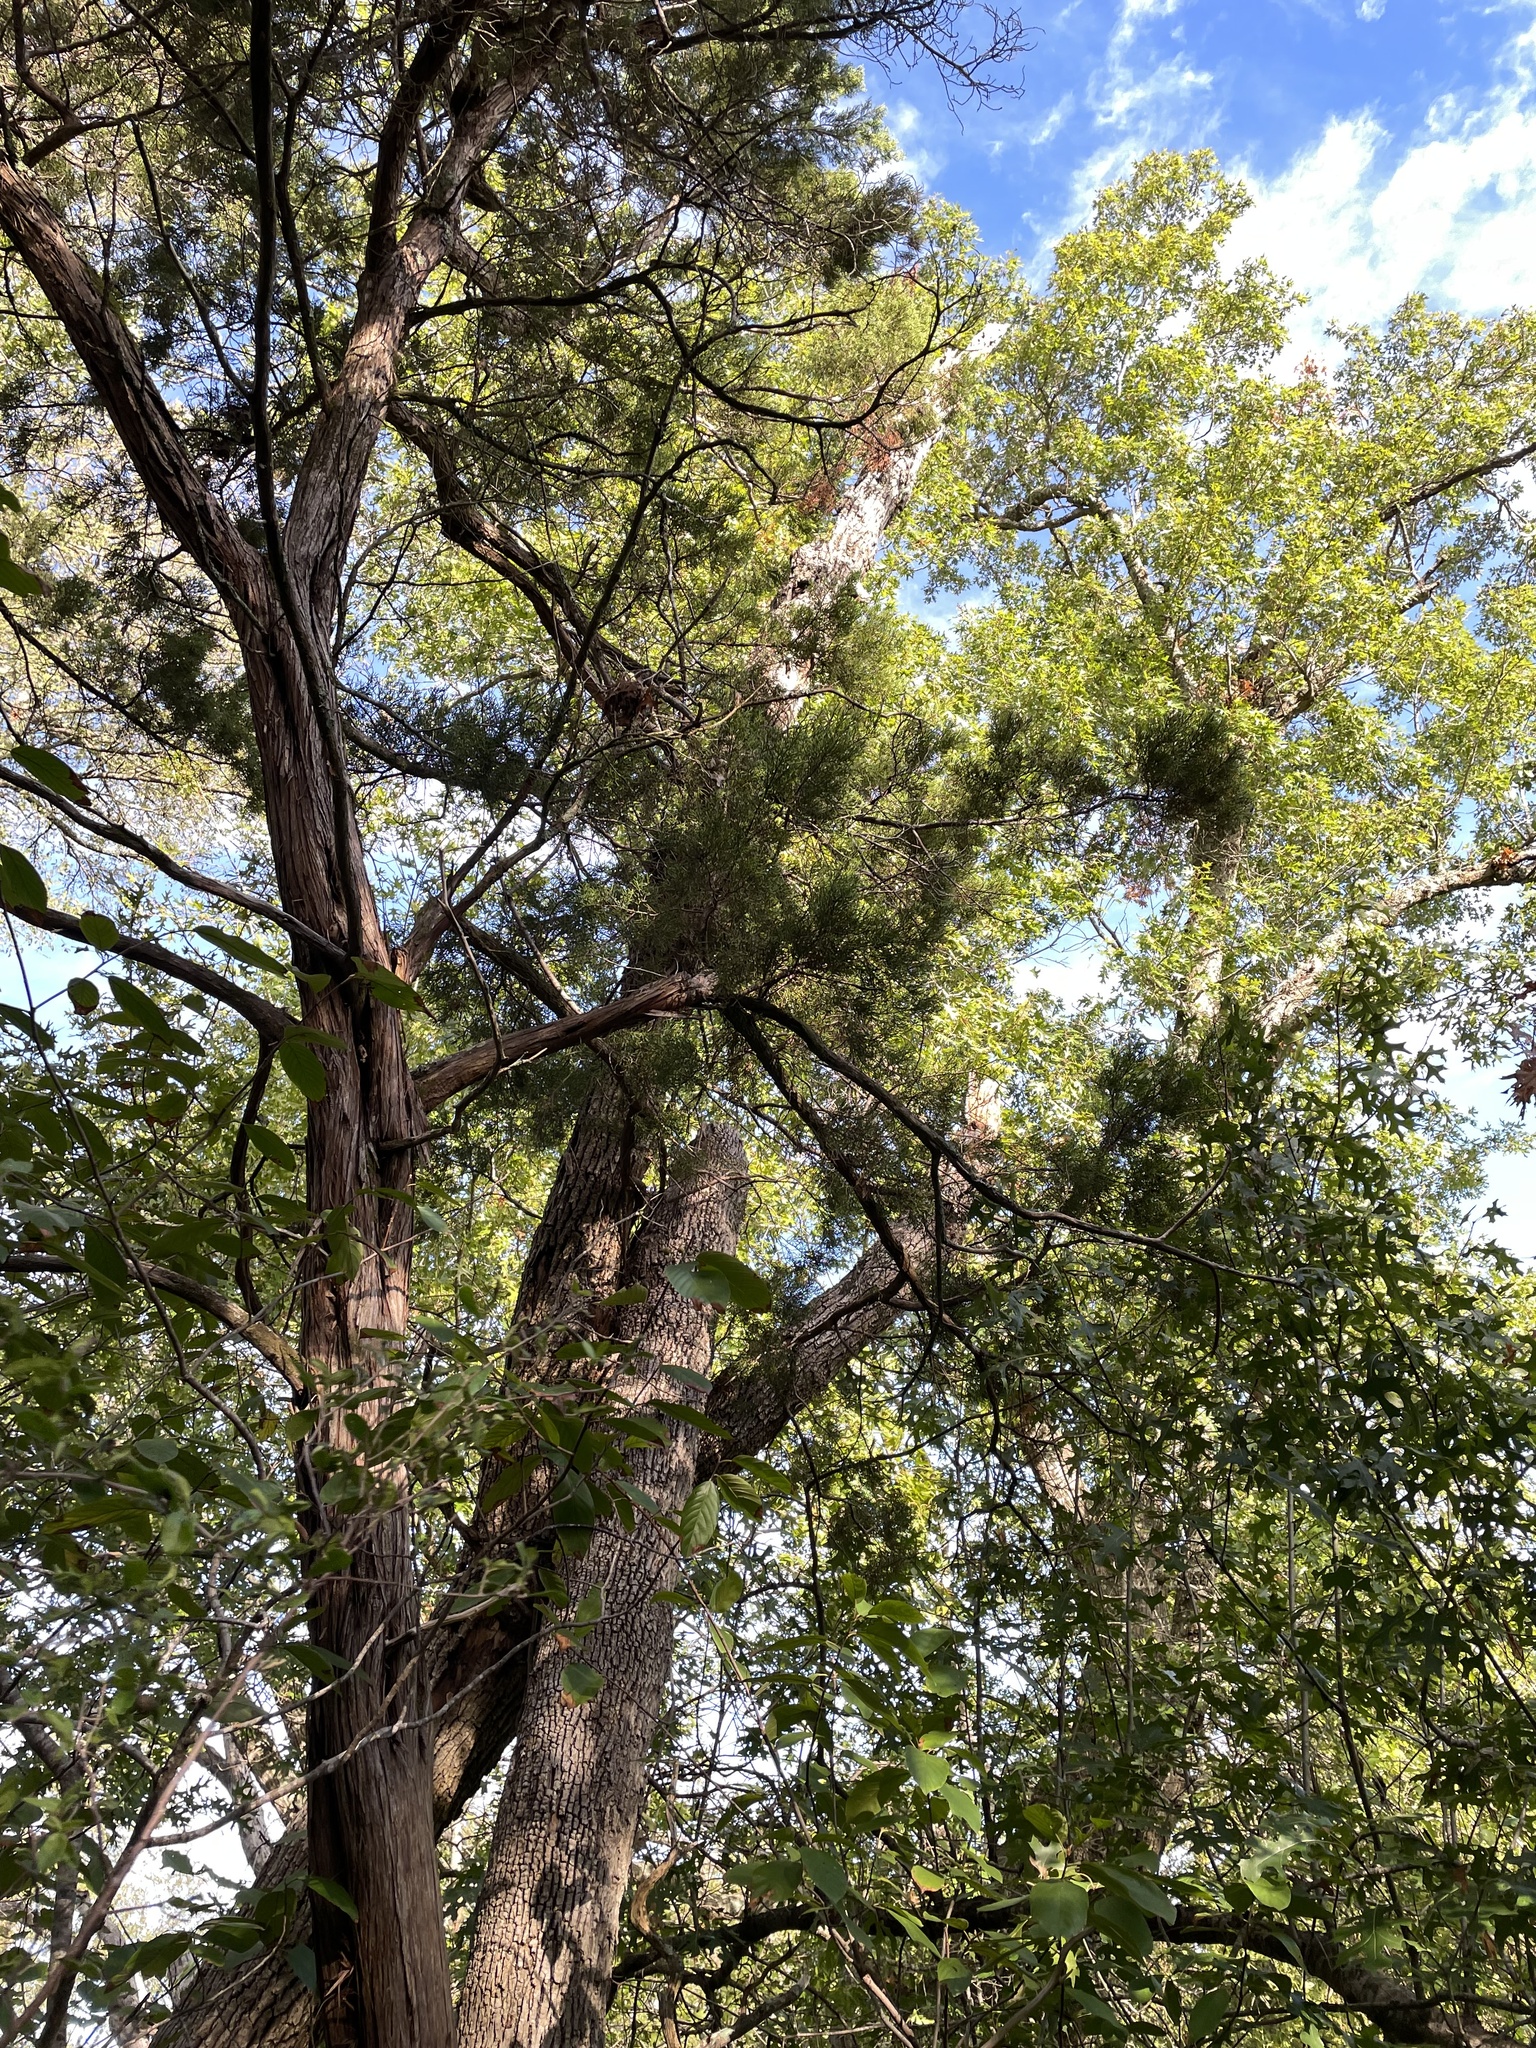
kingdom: Plantae
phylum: Tracheophyta
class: Magnoliopsida
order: Lamiales
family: Oleaceae
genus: Fraxinus
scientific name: Fraxinus albicans
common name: Texas ash
